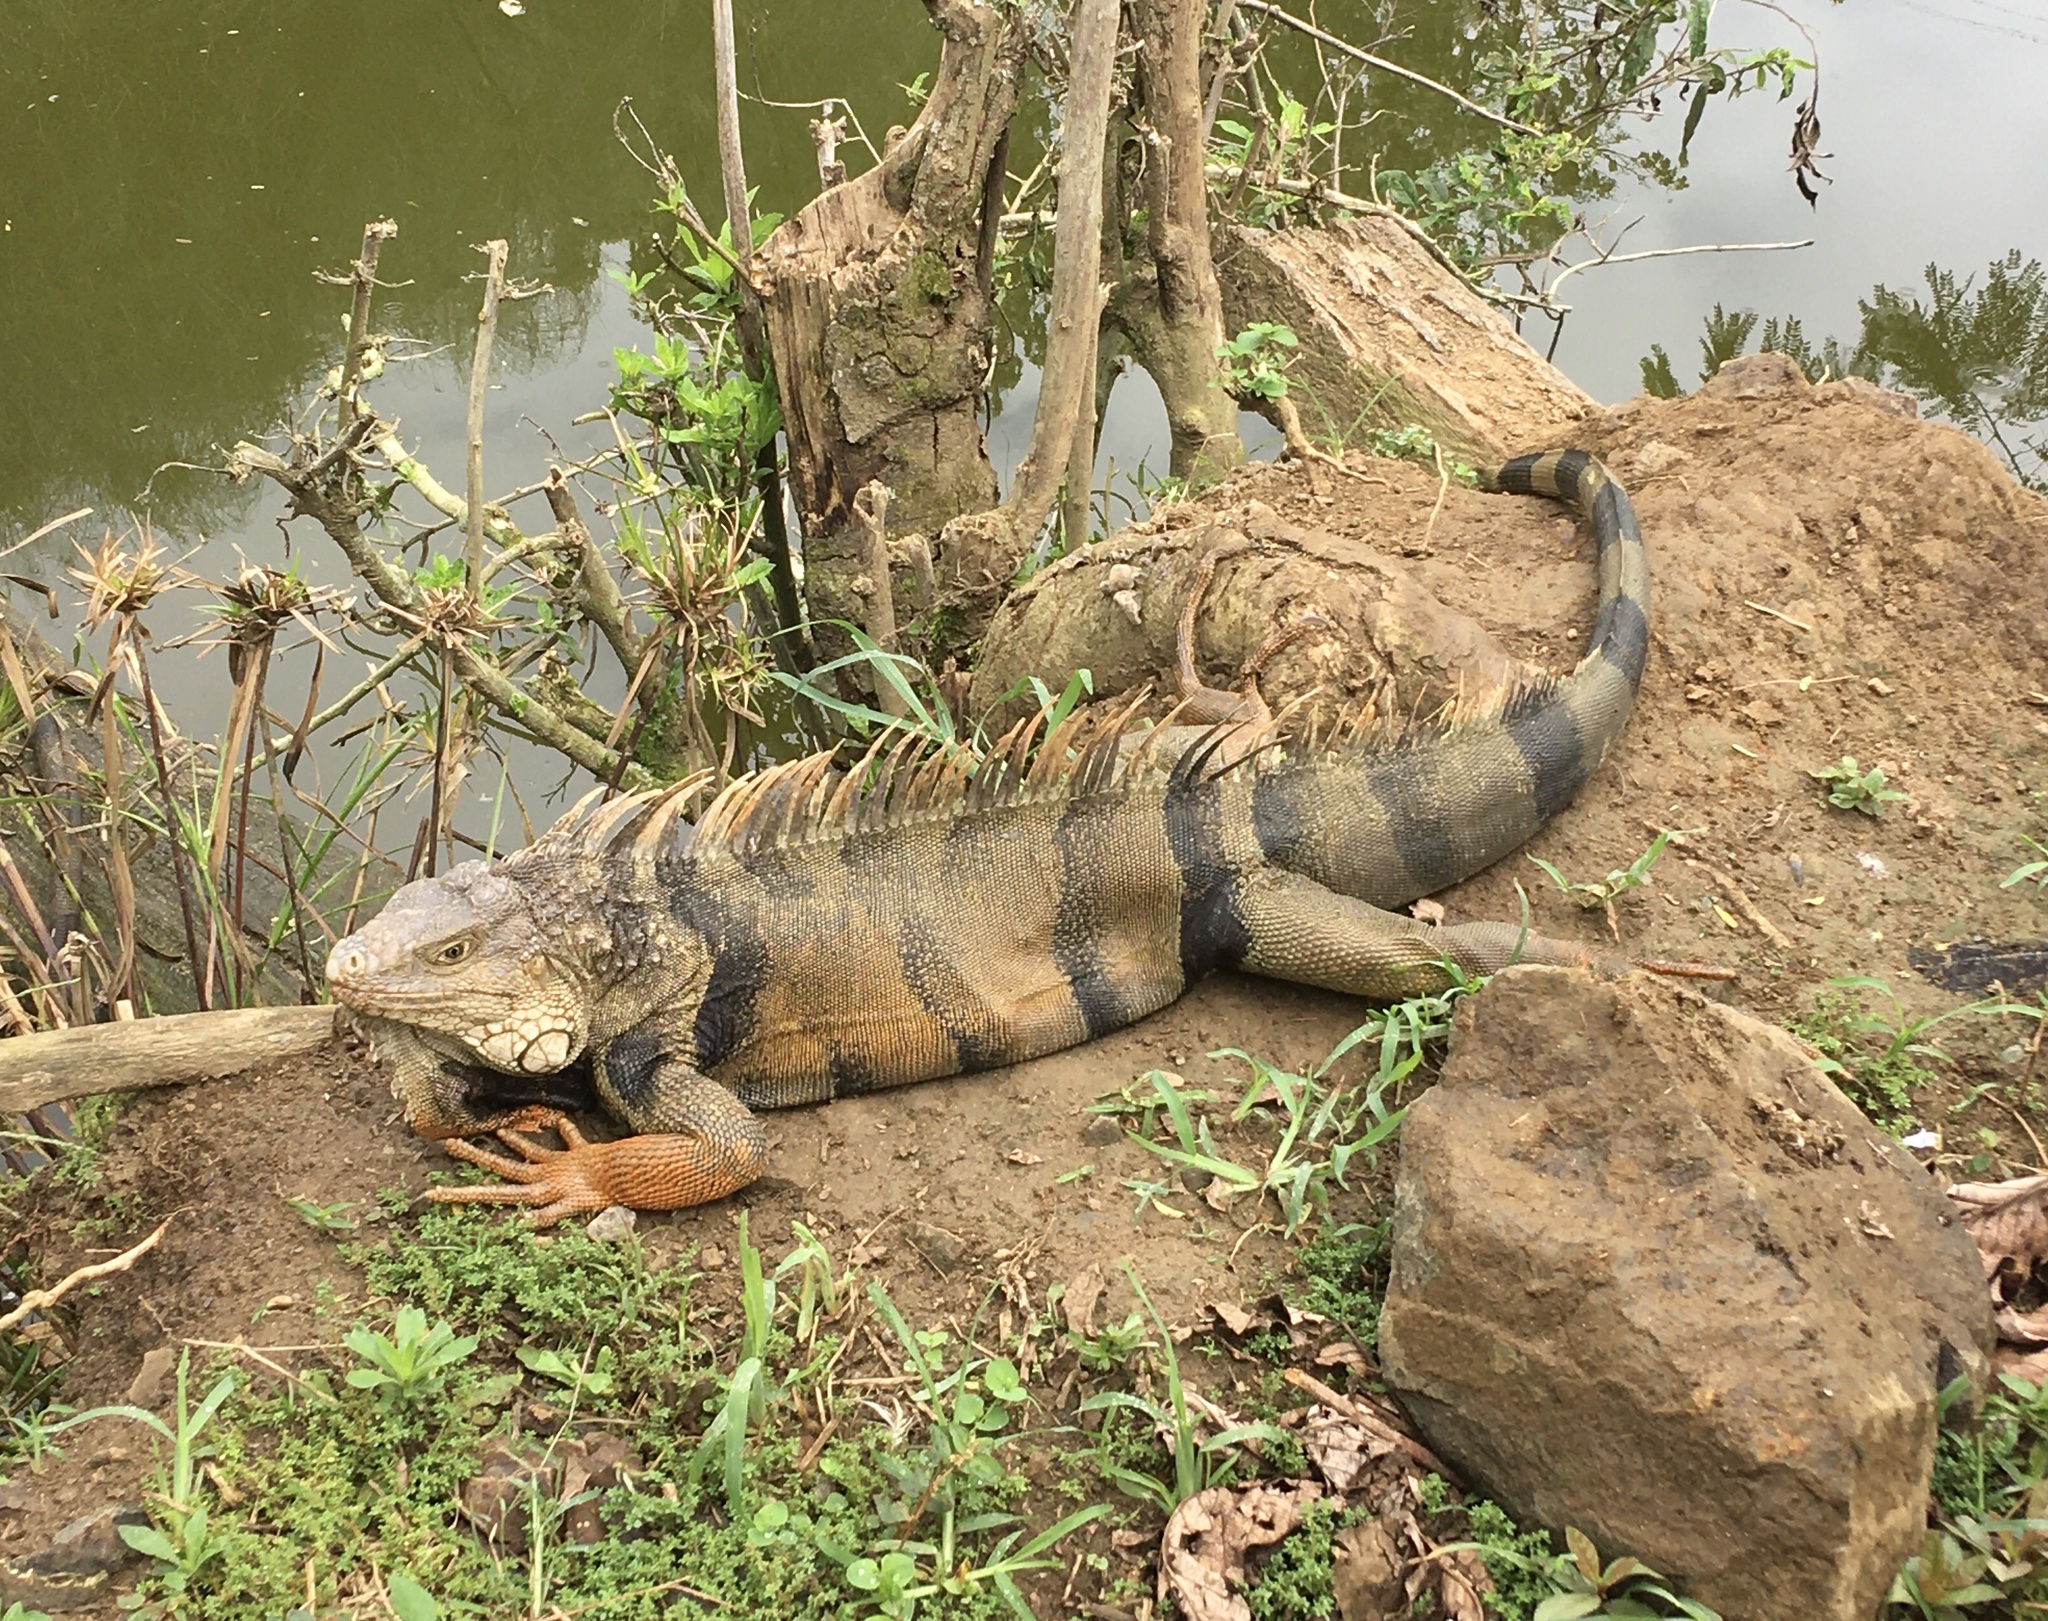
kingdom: Animalia
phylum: Chordata
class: Squamata
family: Iguanidae
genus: Iguana
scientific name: Iguana iguana
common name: Green iguana
